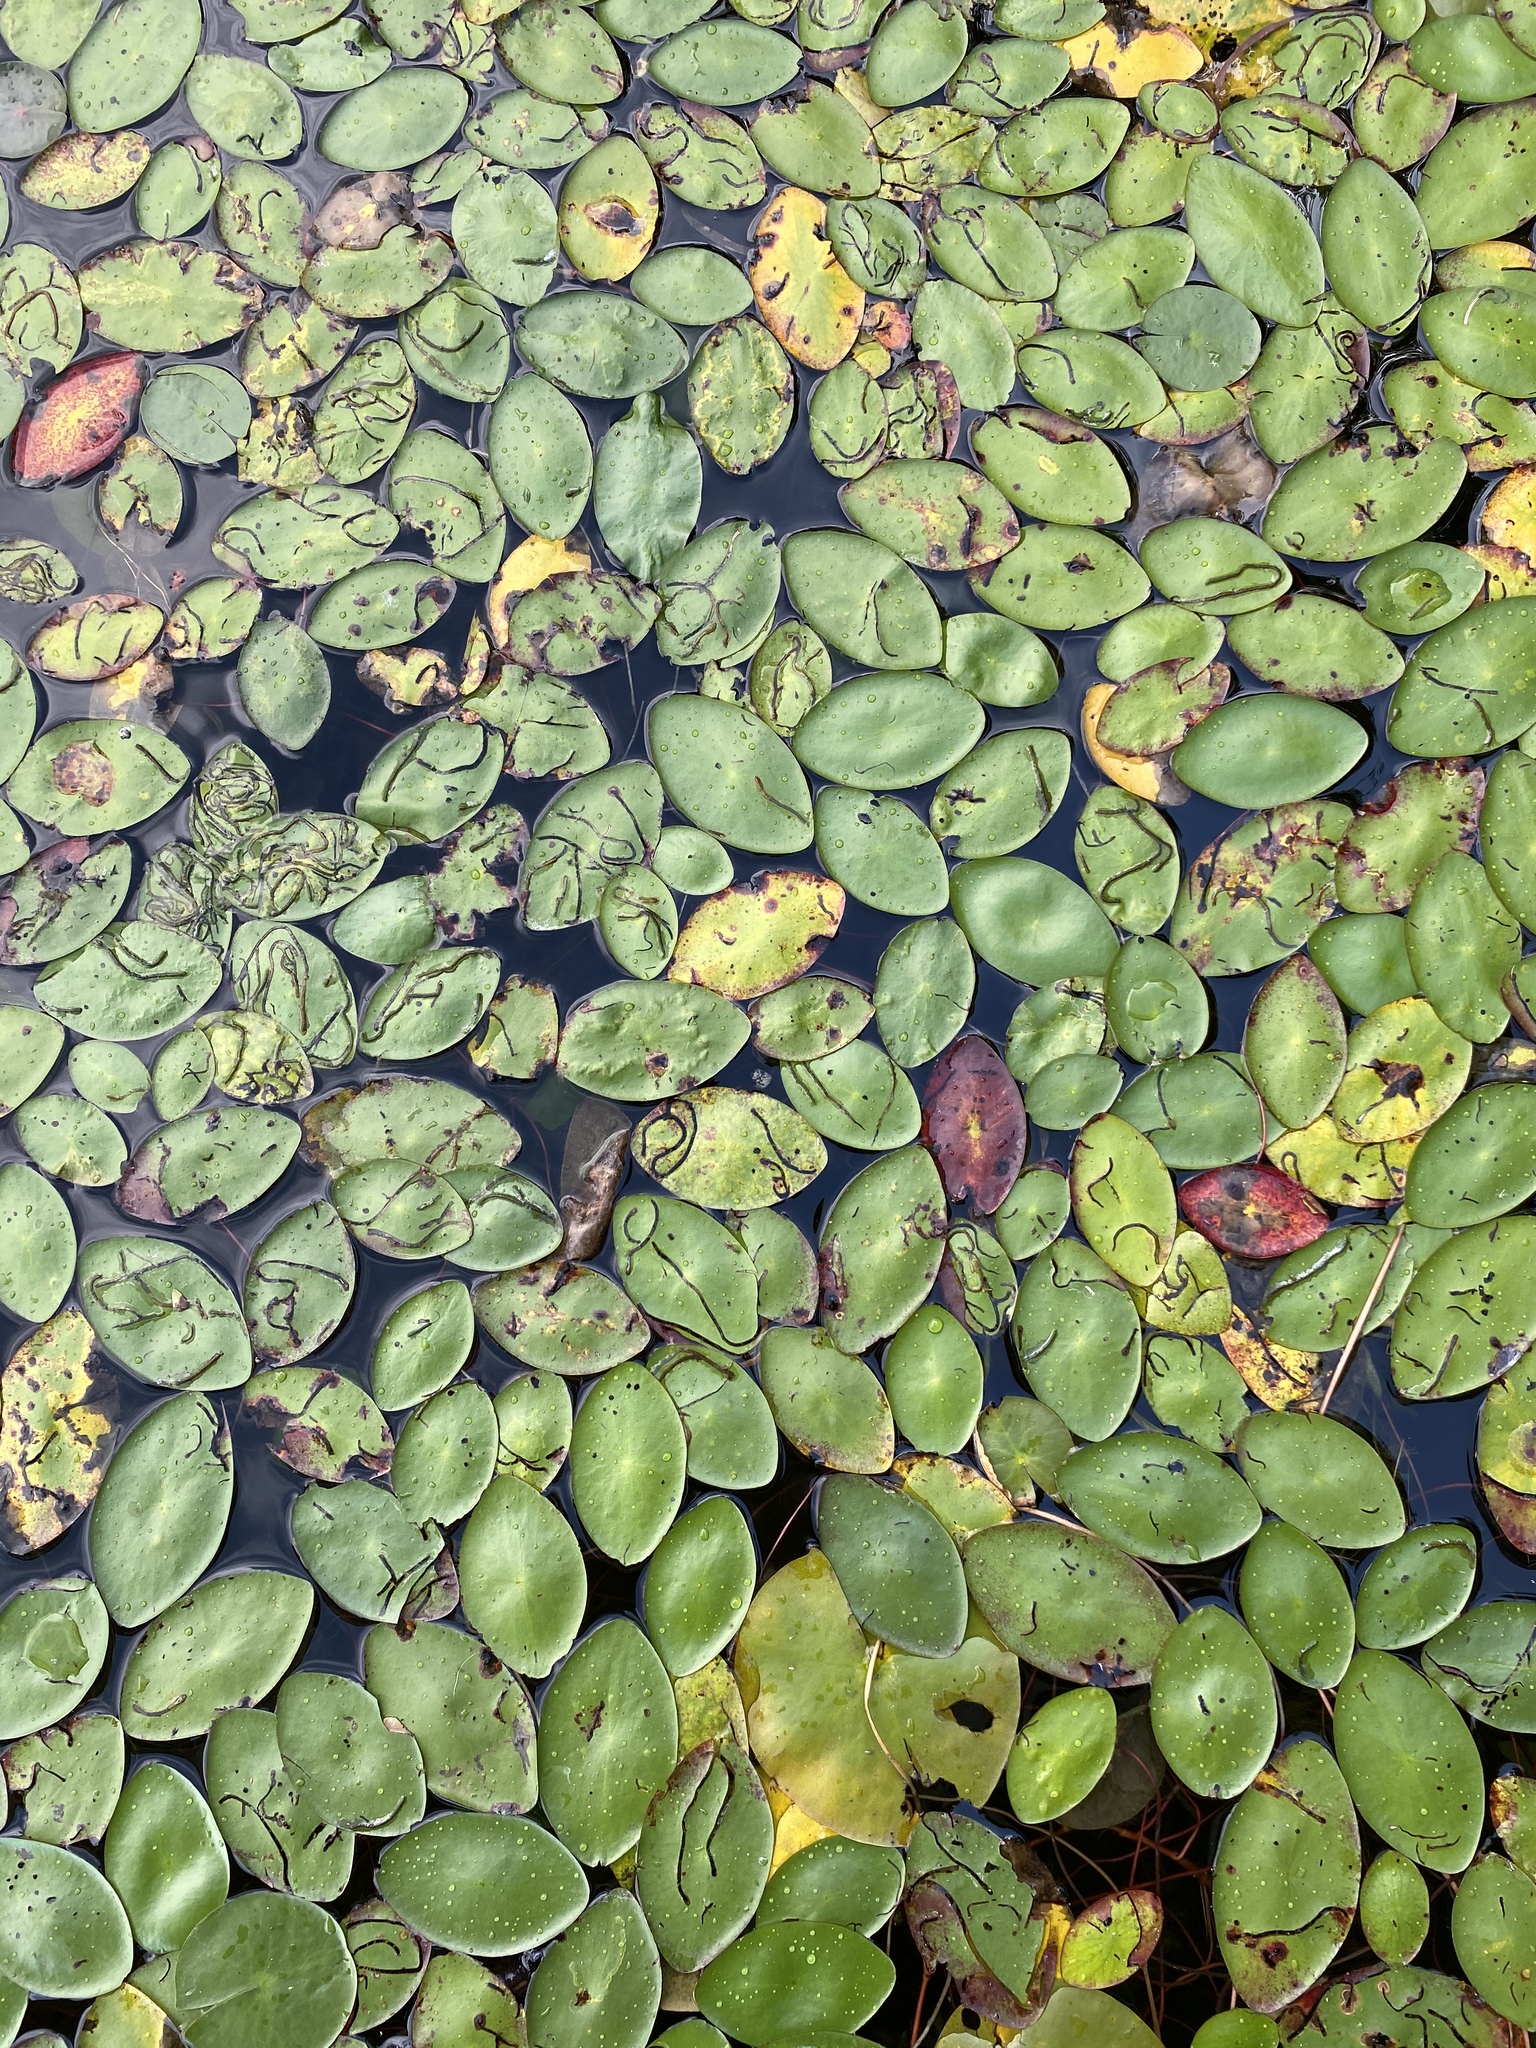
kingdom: Plantae
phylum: Tracheophyta
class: Magnoliopsida
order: Nymphaeales
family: Cabombaceae
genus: Brasenia
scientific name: Brasenia schreberi
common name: Water-shield
